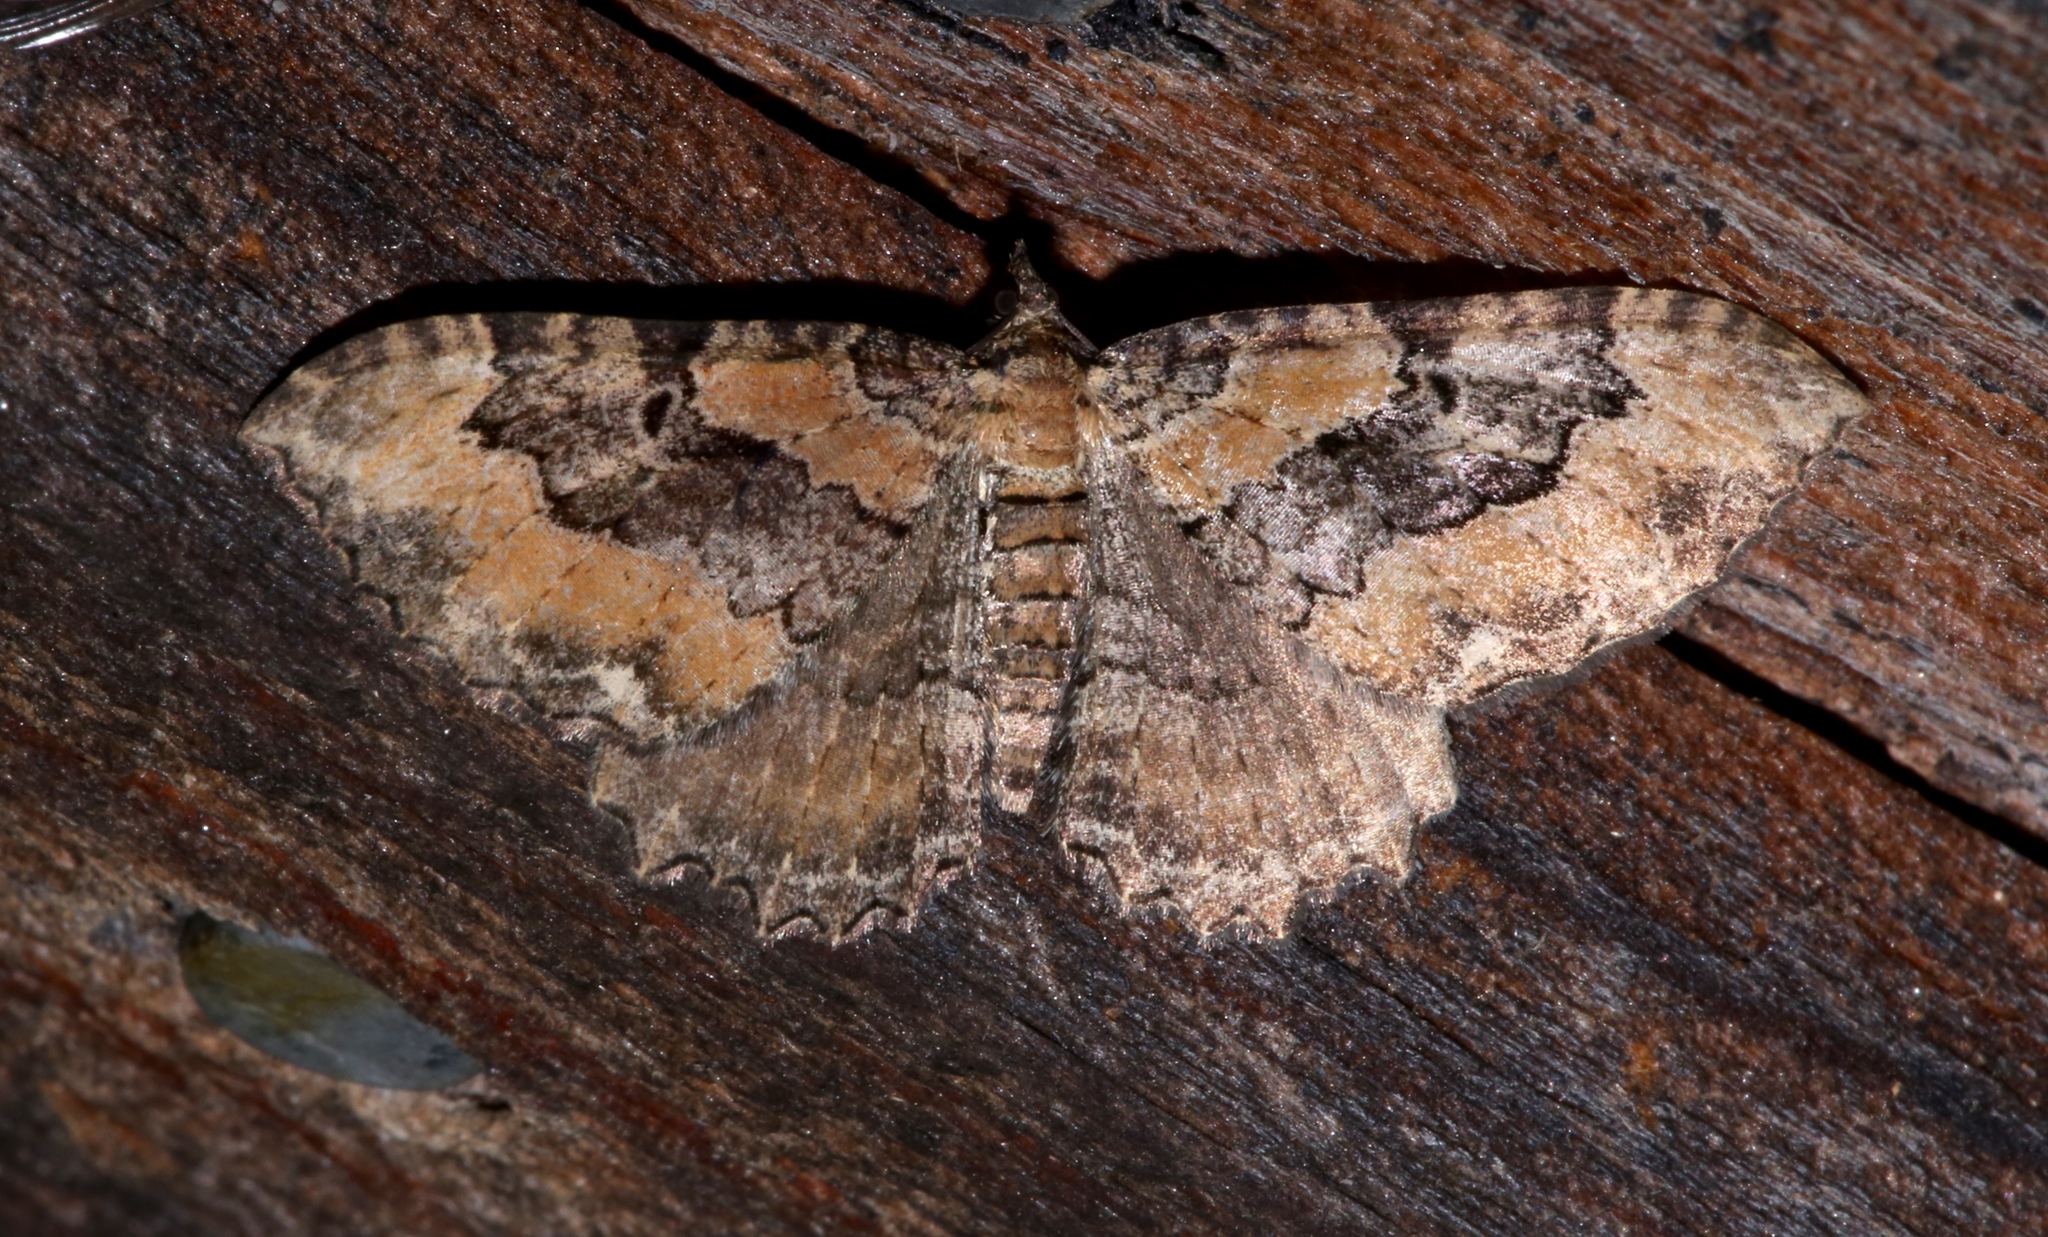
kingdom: Animalia
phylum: Arthropoda
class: Insecta
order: Lepidoptera
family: Geometridae
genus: Rheumaptera
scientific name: Rheumaptera
